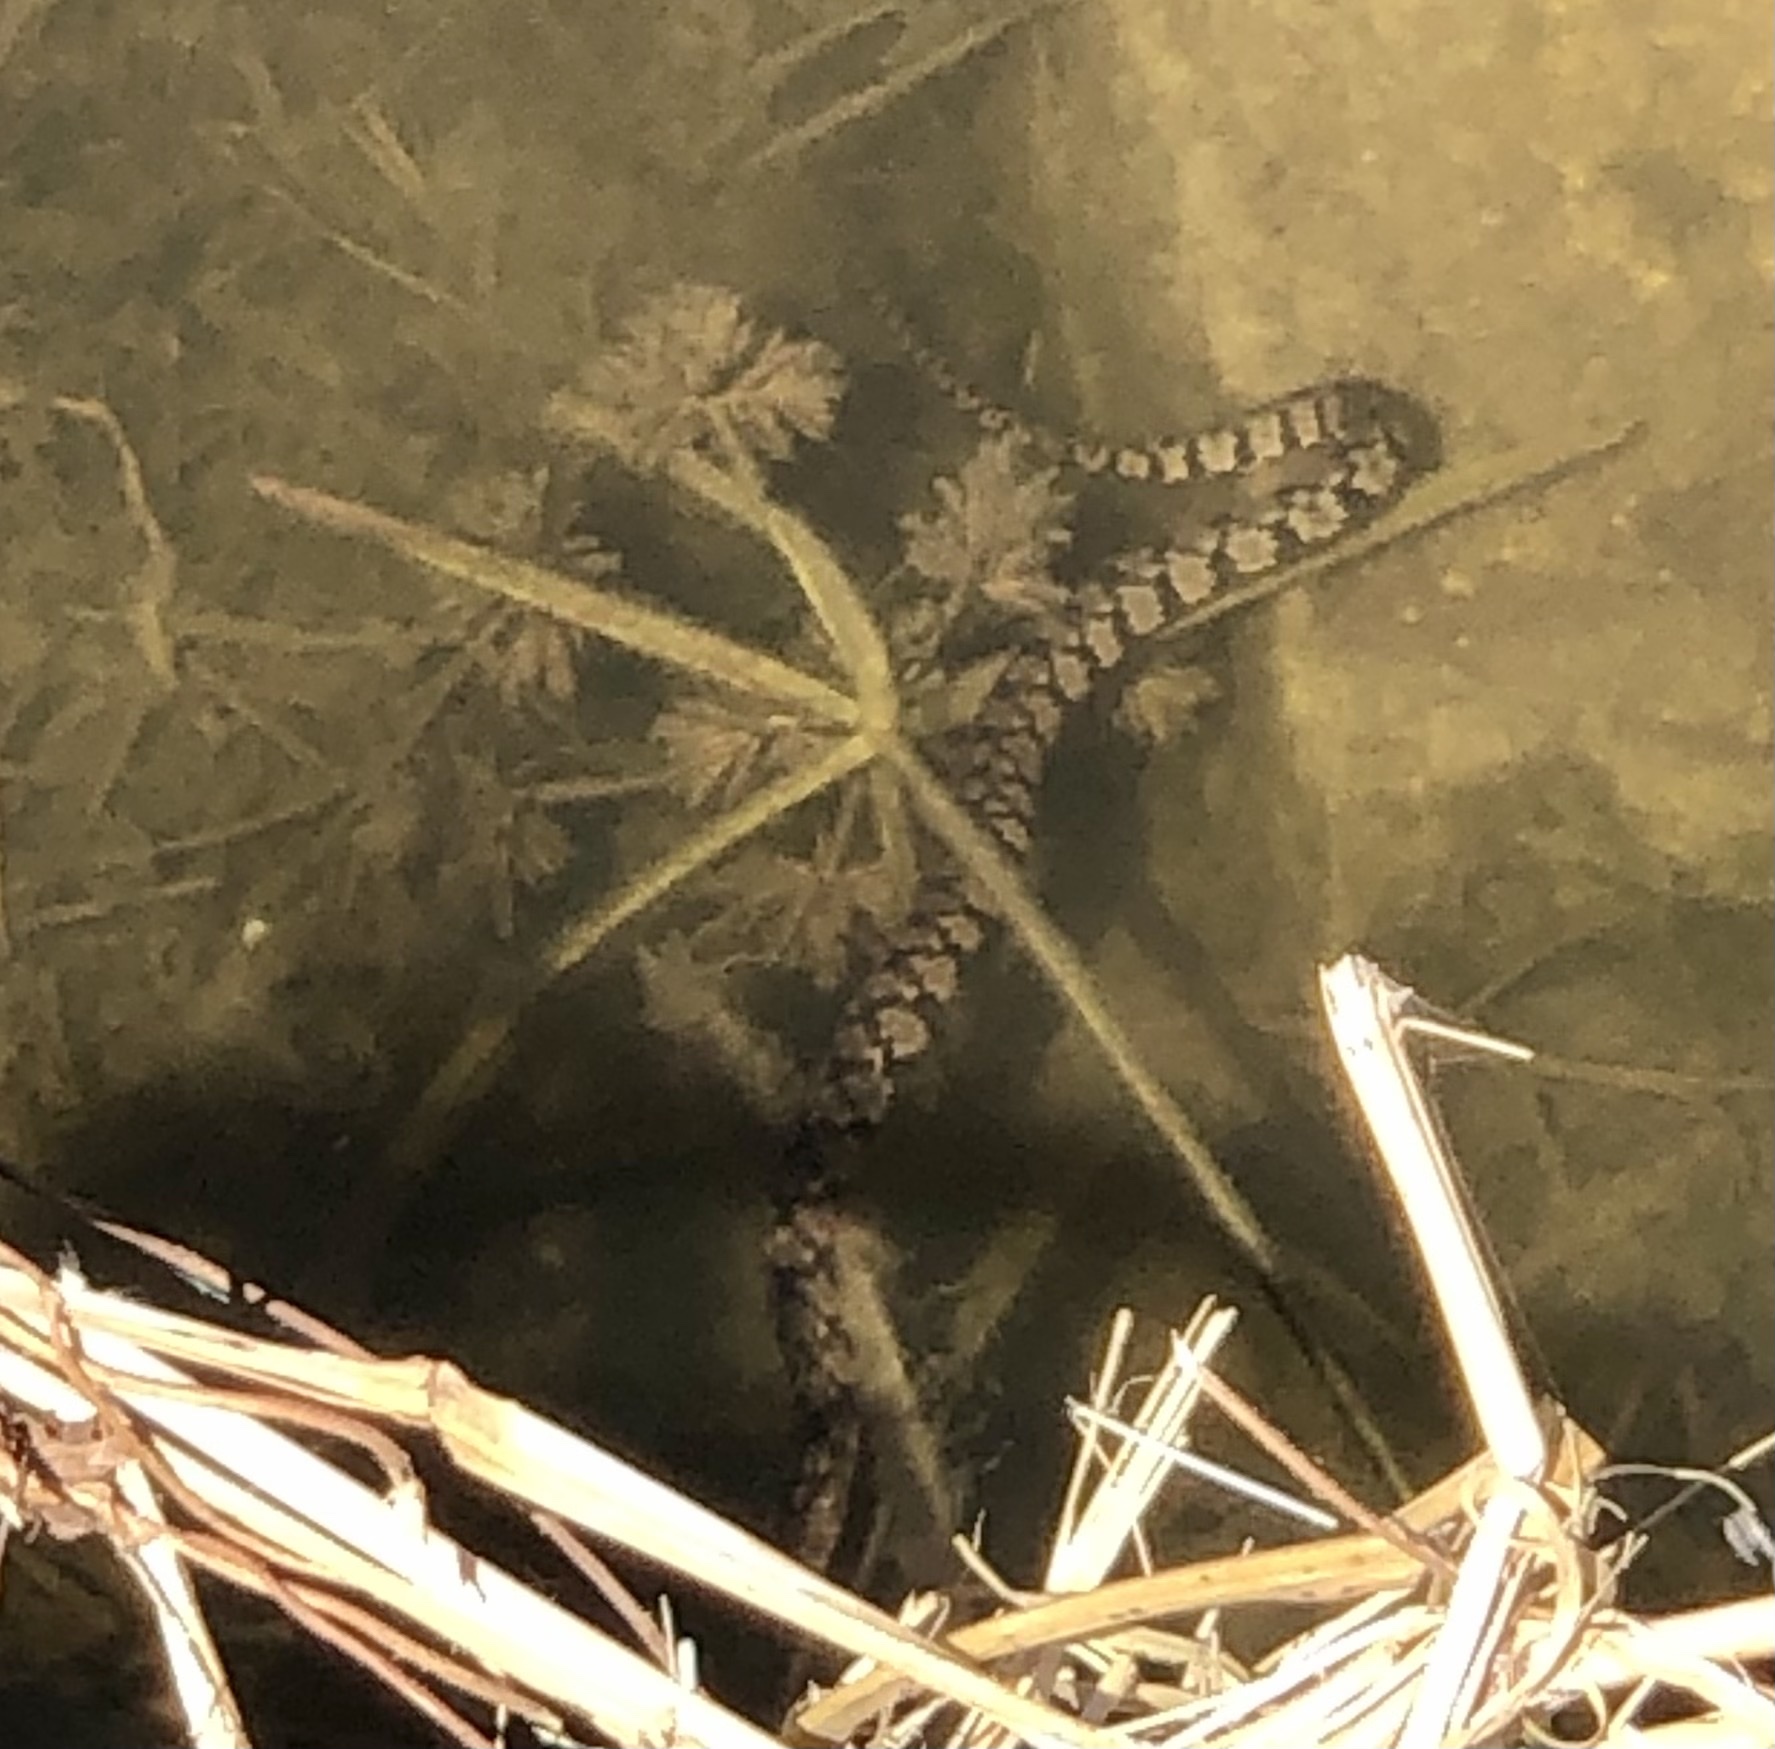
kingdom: Animalia
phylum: Chordata
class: Squamata
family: Colubridae
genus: Nerodia
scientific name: Nerodia rhombifer
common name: Diamondback water snake
